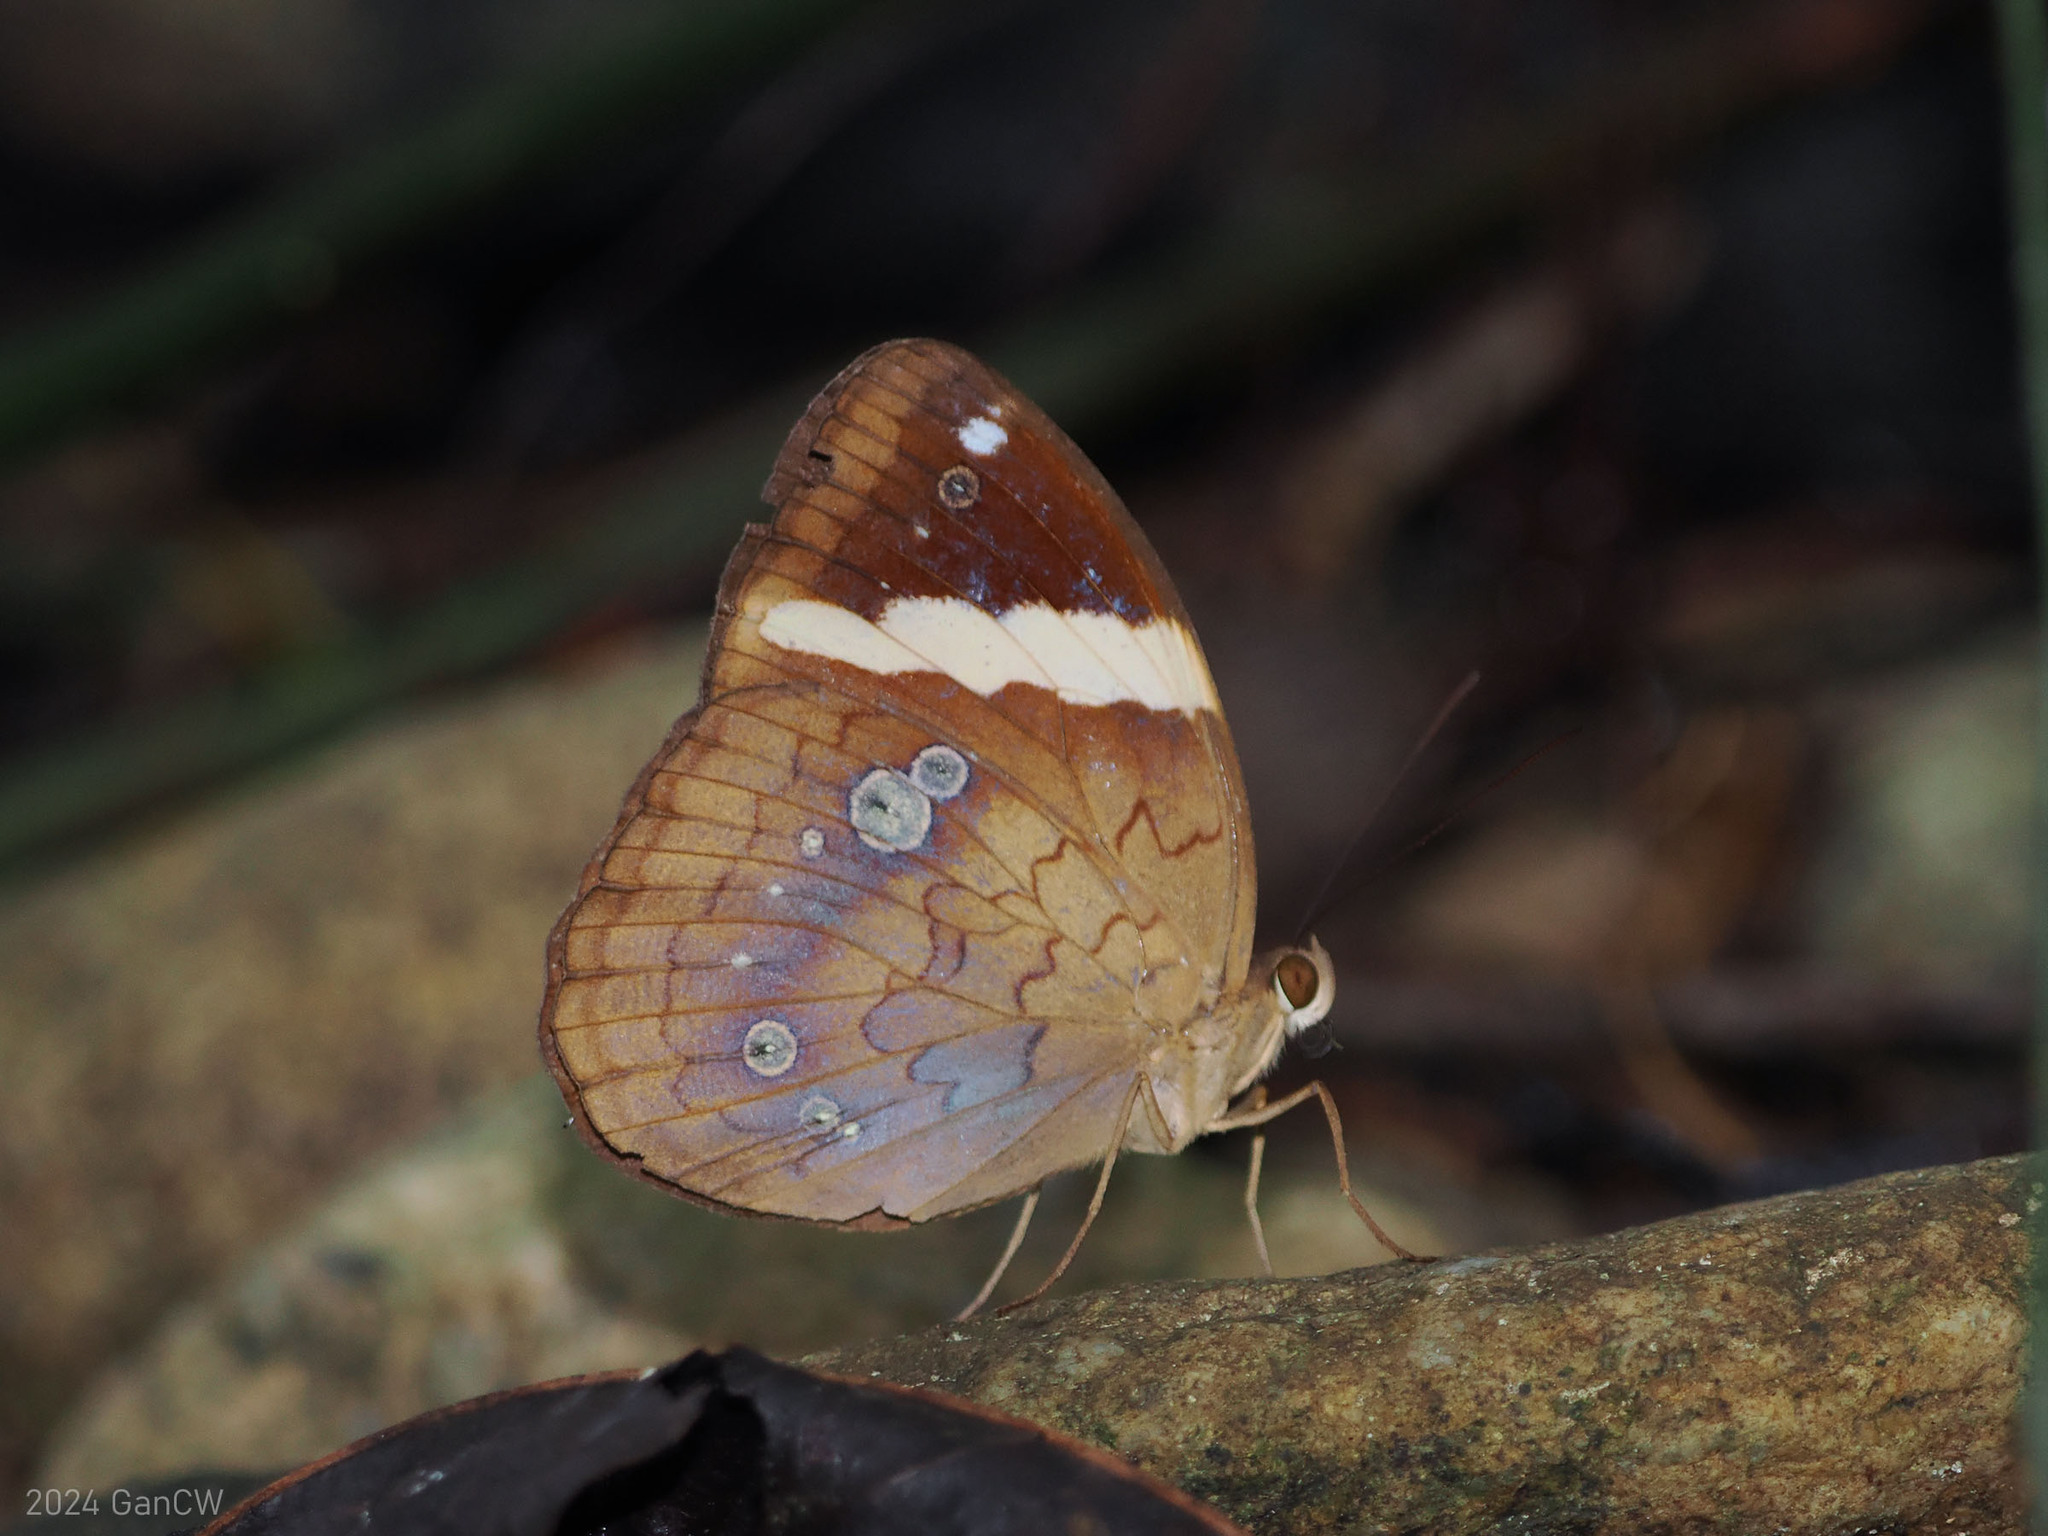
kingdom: Animalia
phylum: Arthropoda
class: Insecta
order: Lepidoptera
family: Nymphalidae
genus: Xanthotaenia
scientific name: Xanthotaenia busiris
